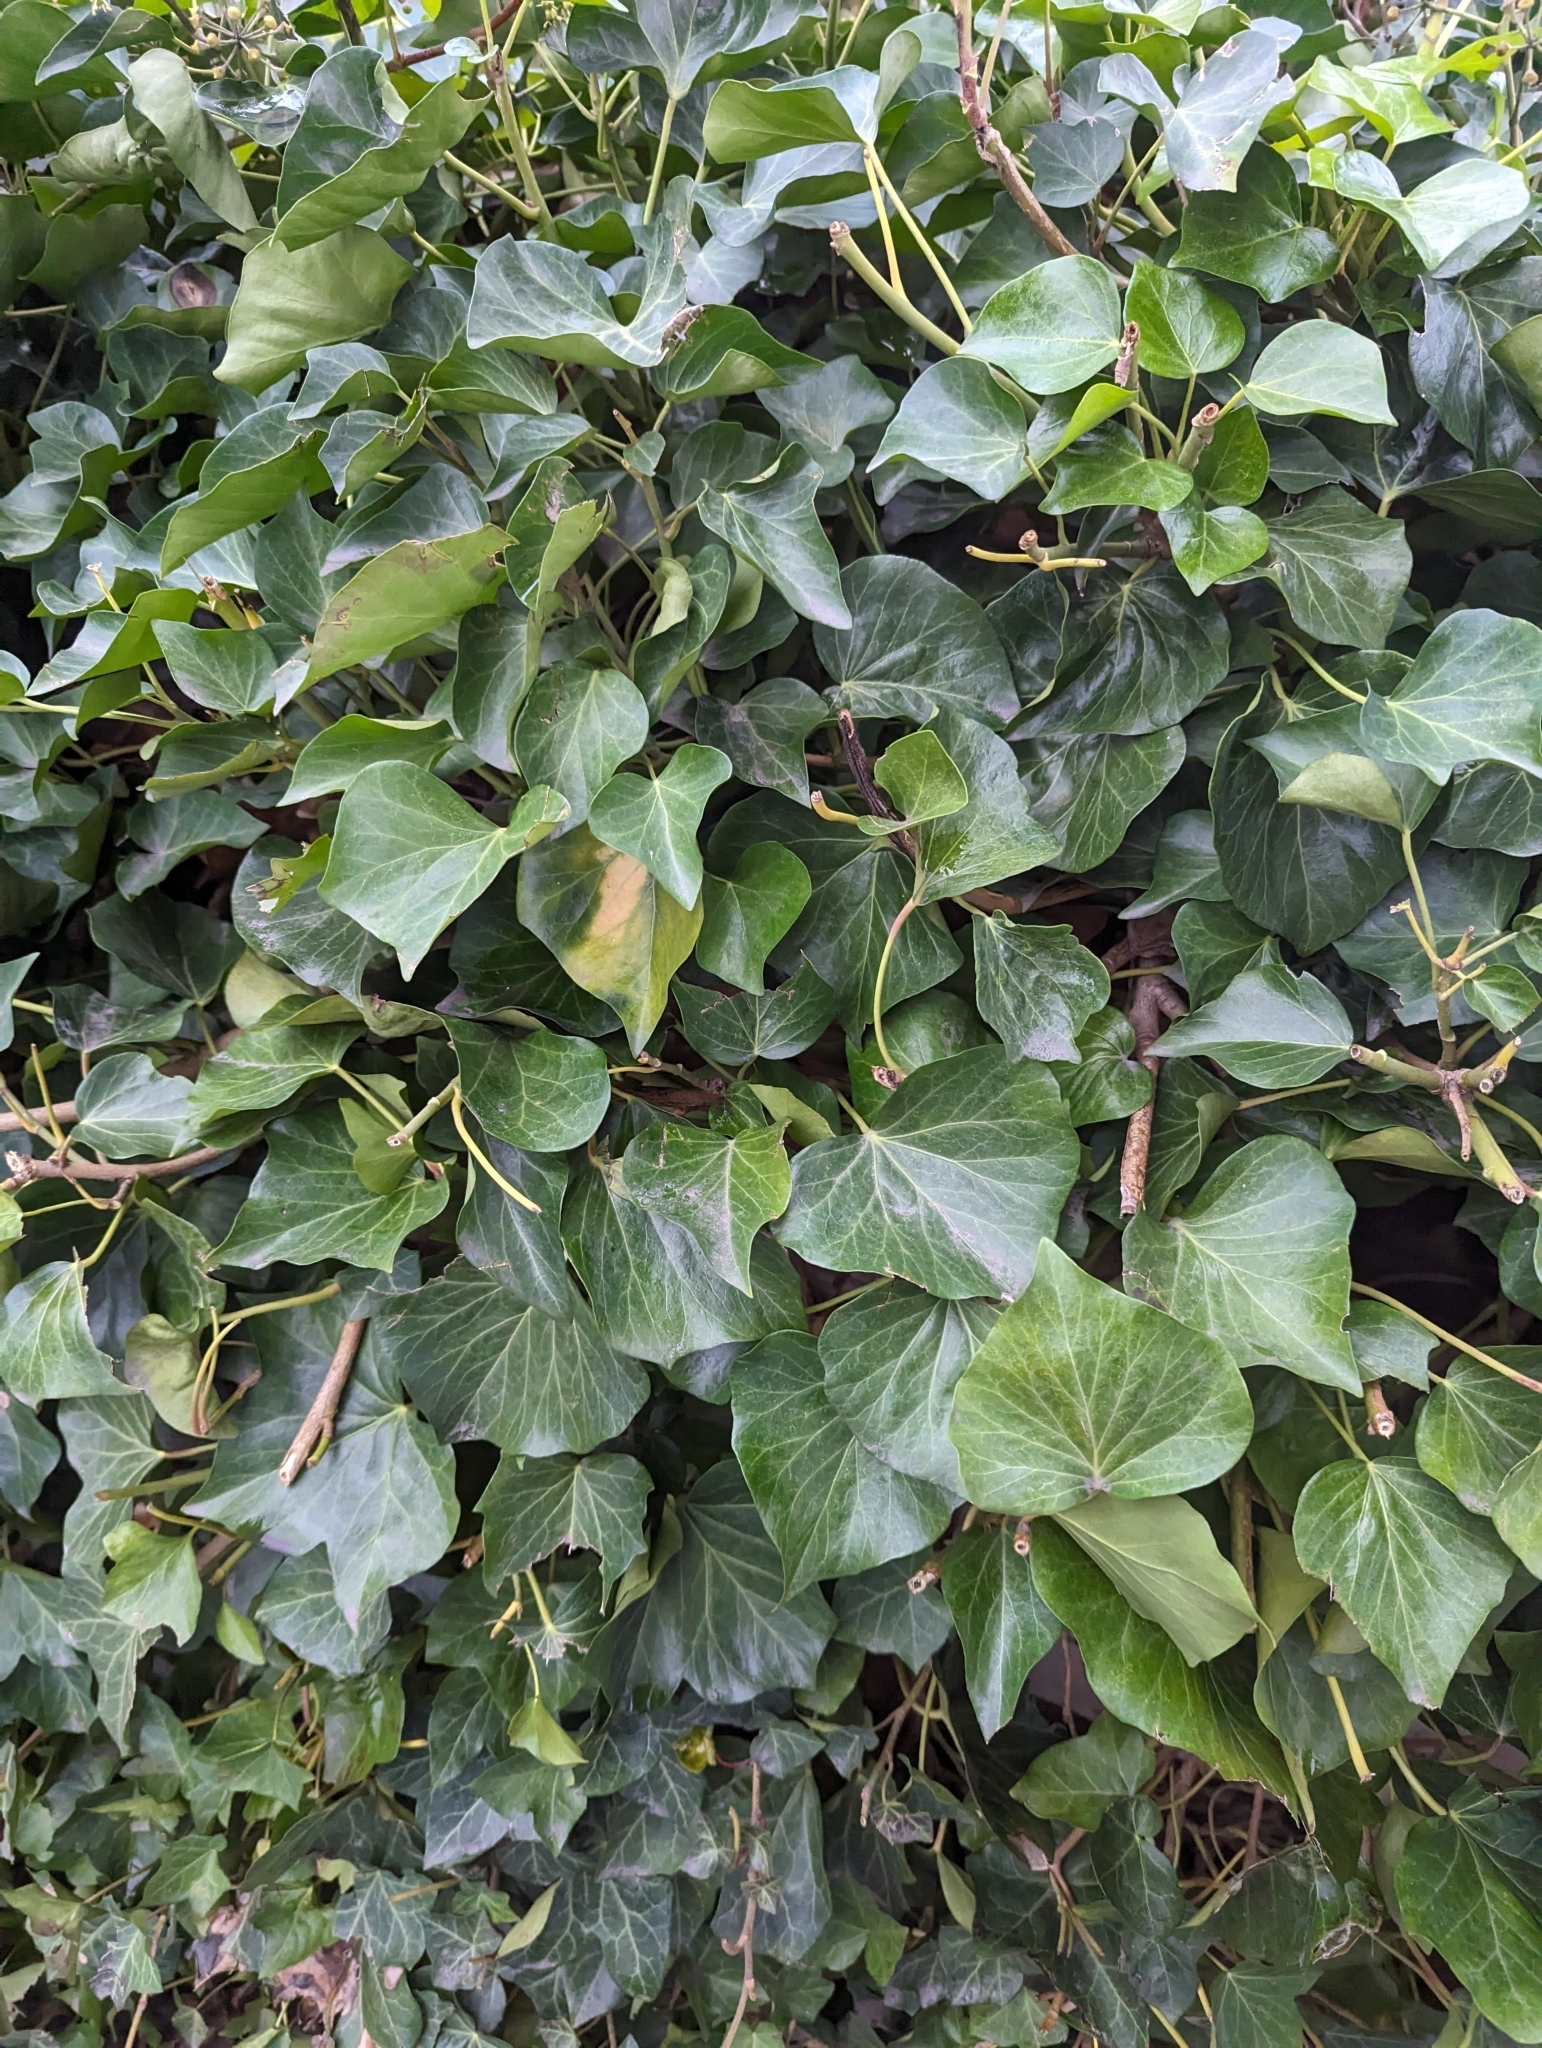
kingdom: Plantae
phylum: Tracheophyta
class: Magnoliopsida
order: Apiales
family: Araliaceae
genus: Hedera
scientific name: Hedera helix
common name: Ivy
